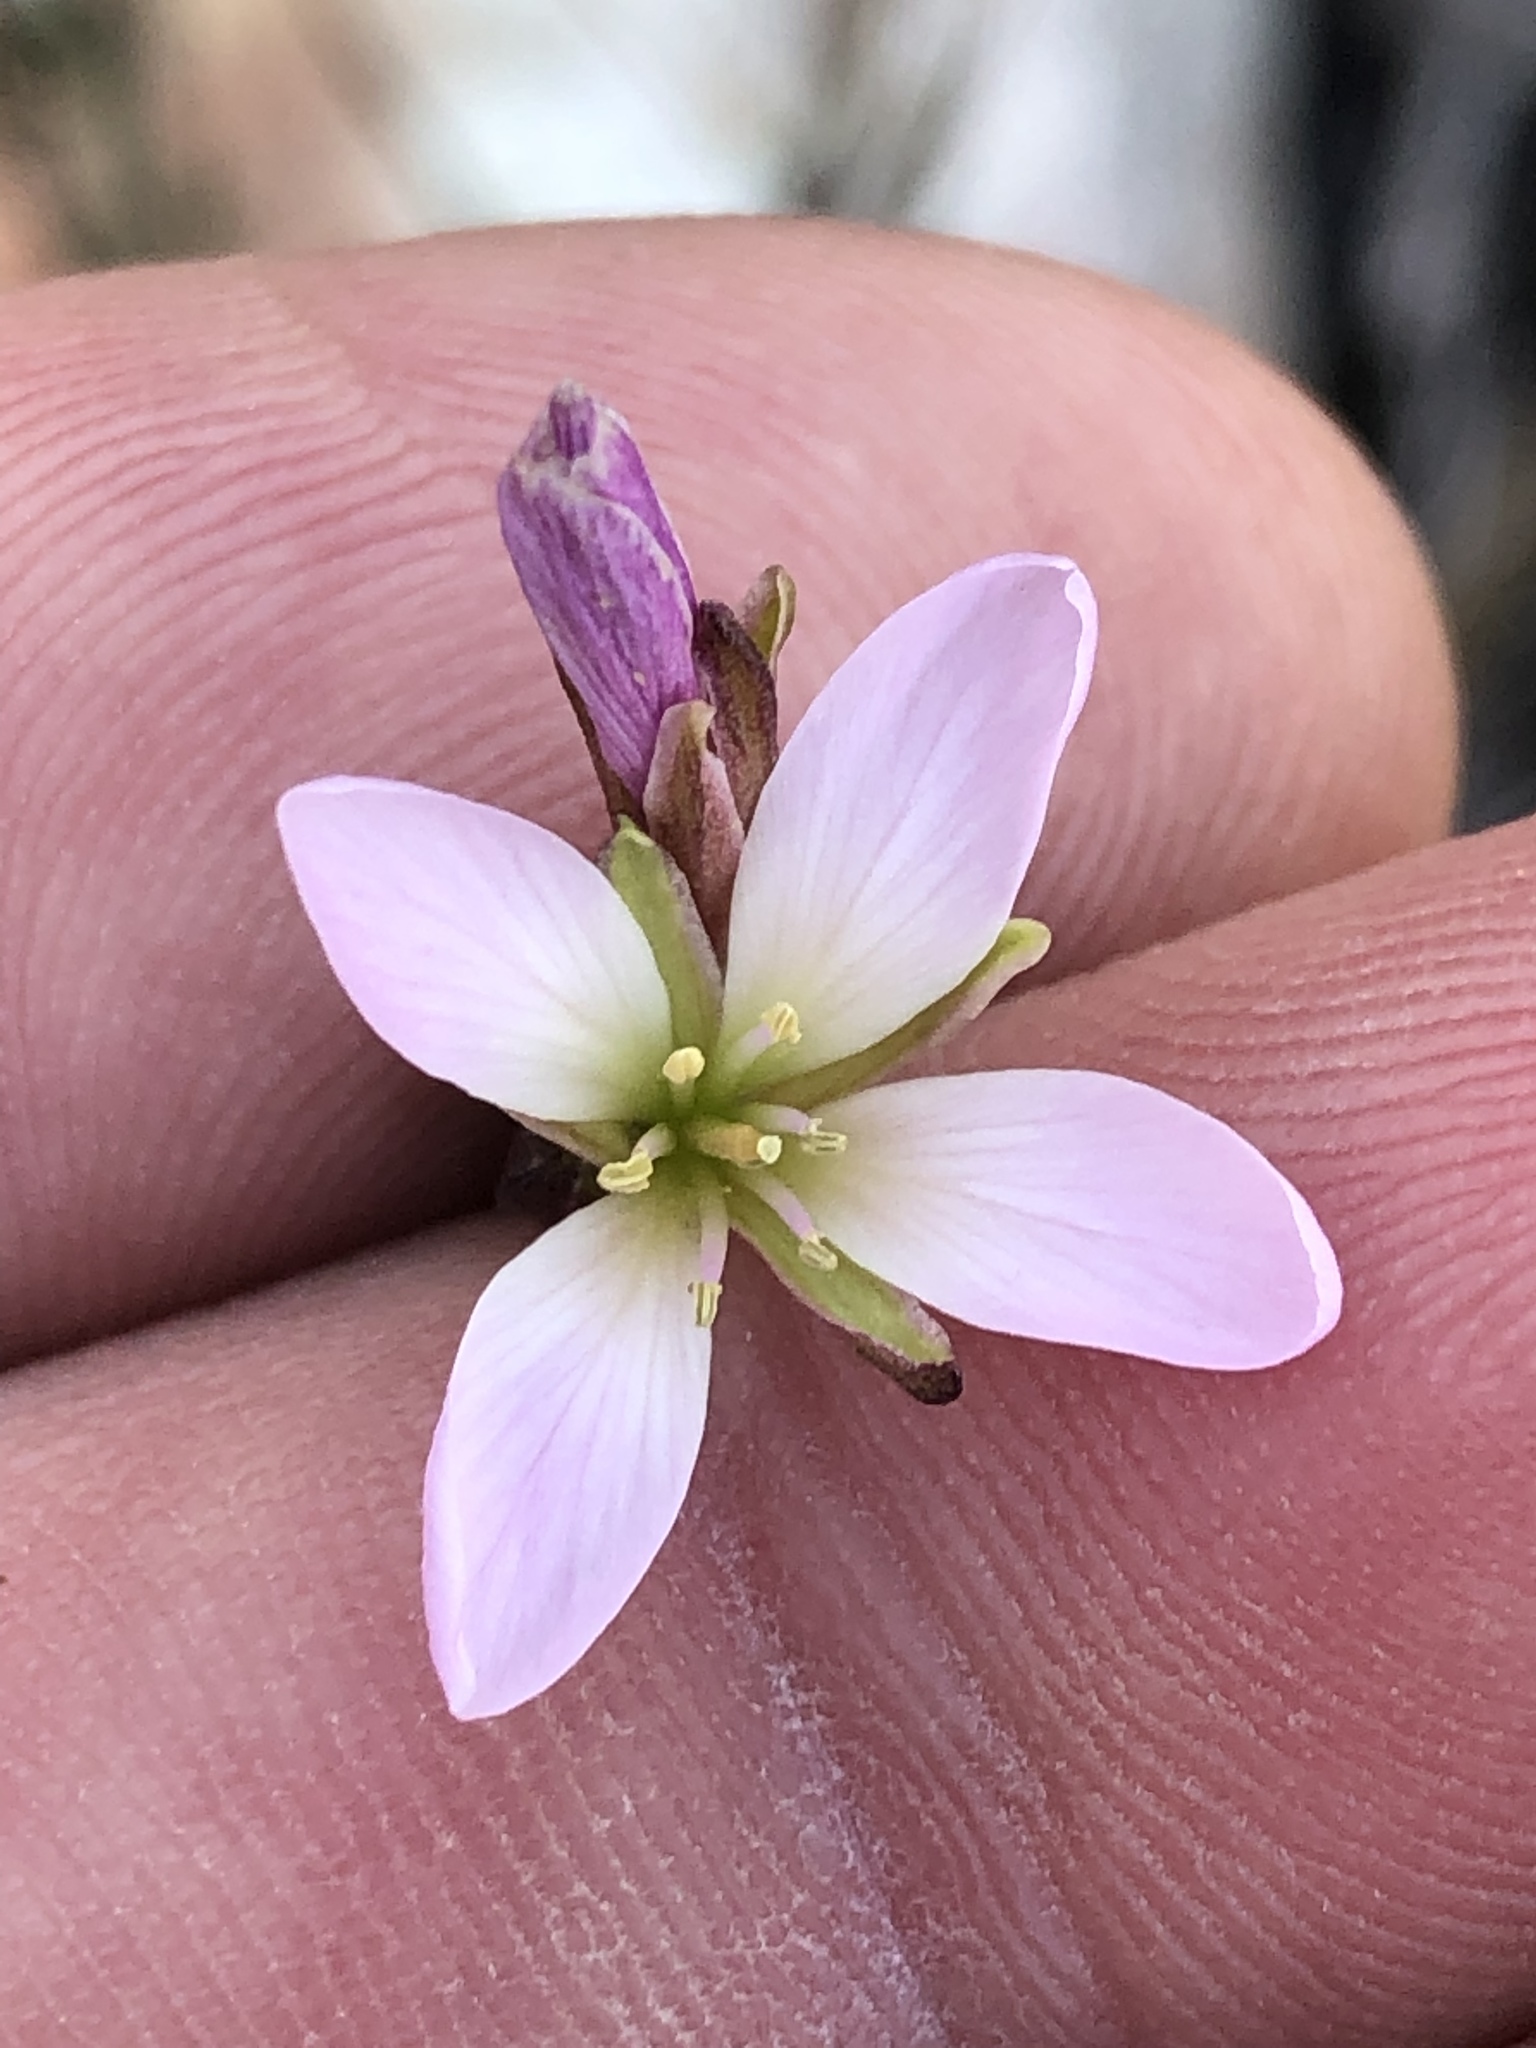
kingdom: Plantae
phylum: Tracheophyta
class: Magnoliopsida
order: Brassicales
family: Brassicaceae
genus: Heliophila
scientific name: Heliophila scoparia
